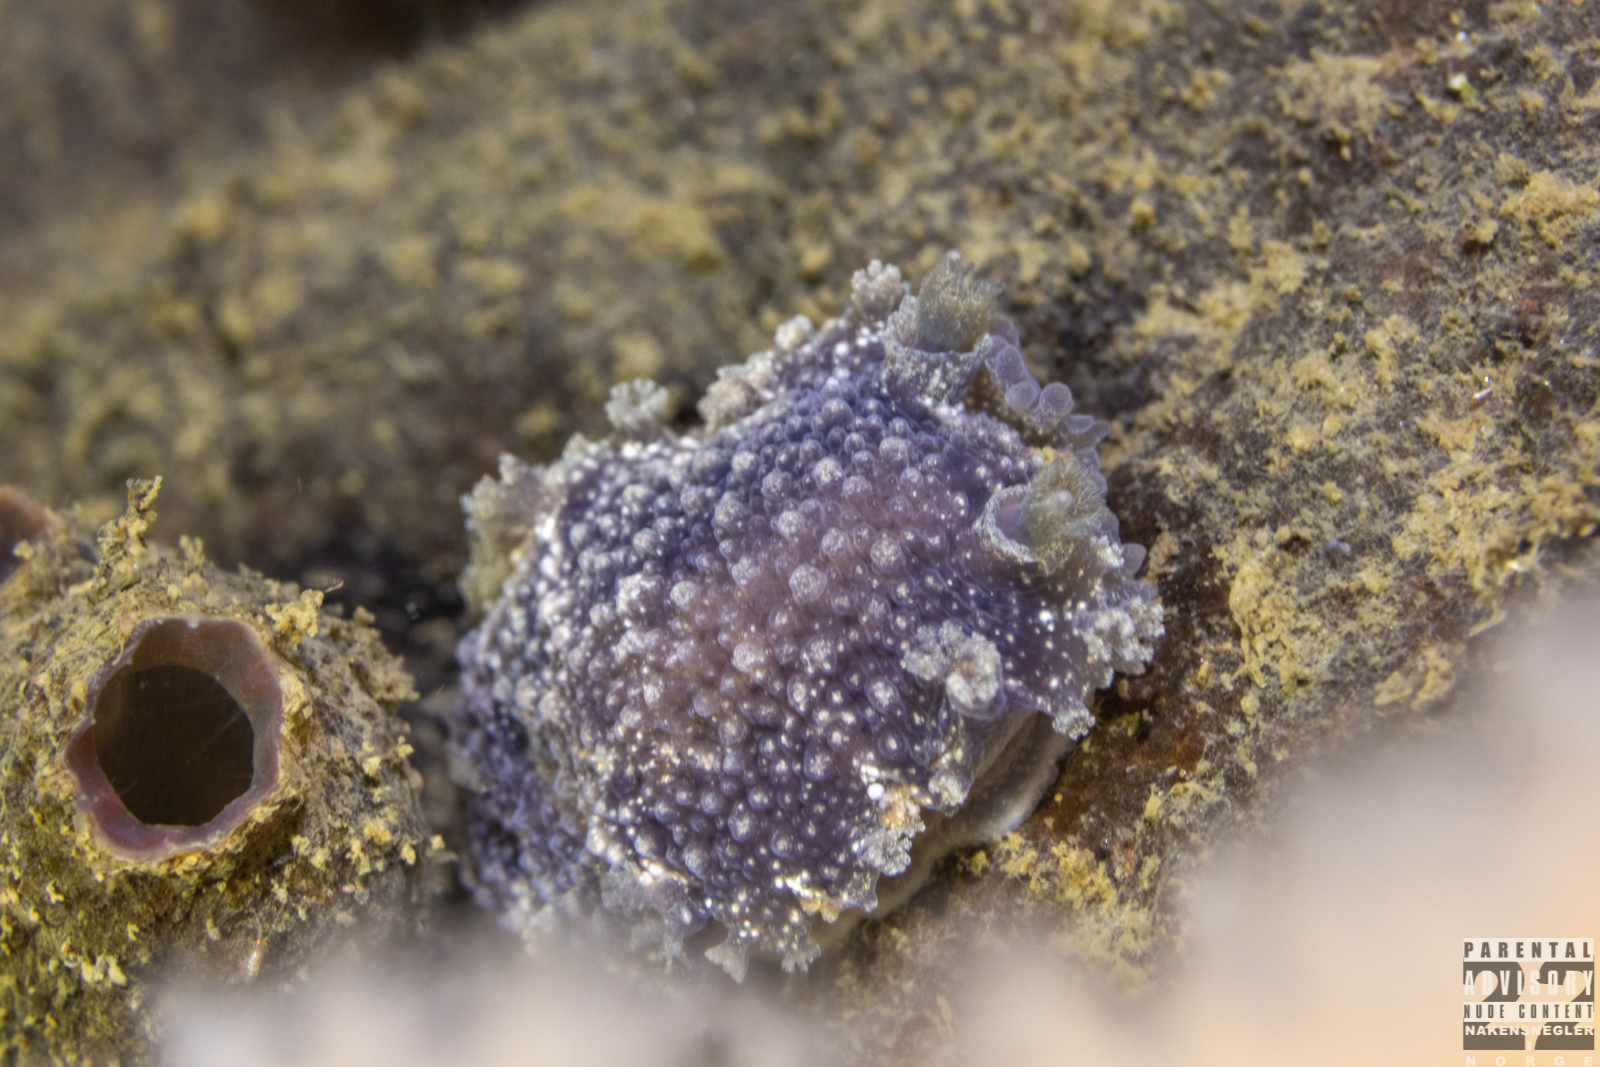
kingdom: Animalia
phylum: Mollusca
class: Gastropoda
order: Nudibranchia
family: Tritoniidae
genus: Tritonia
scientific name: Tritonia hombergii
